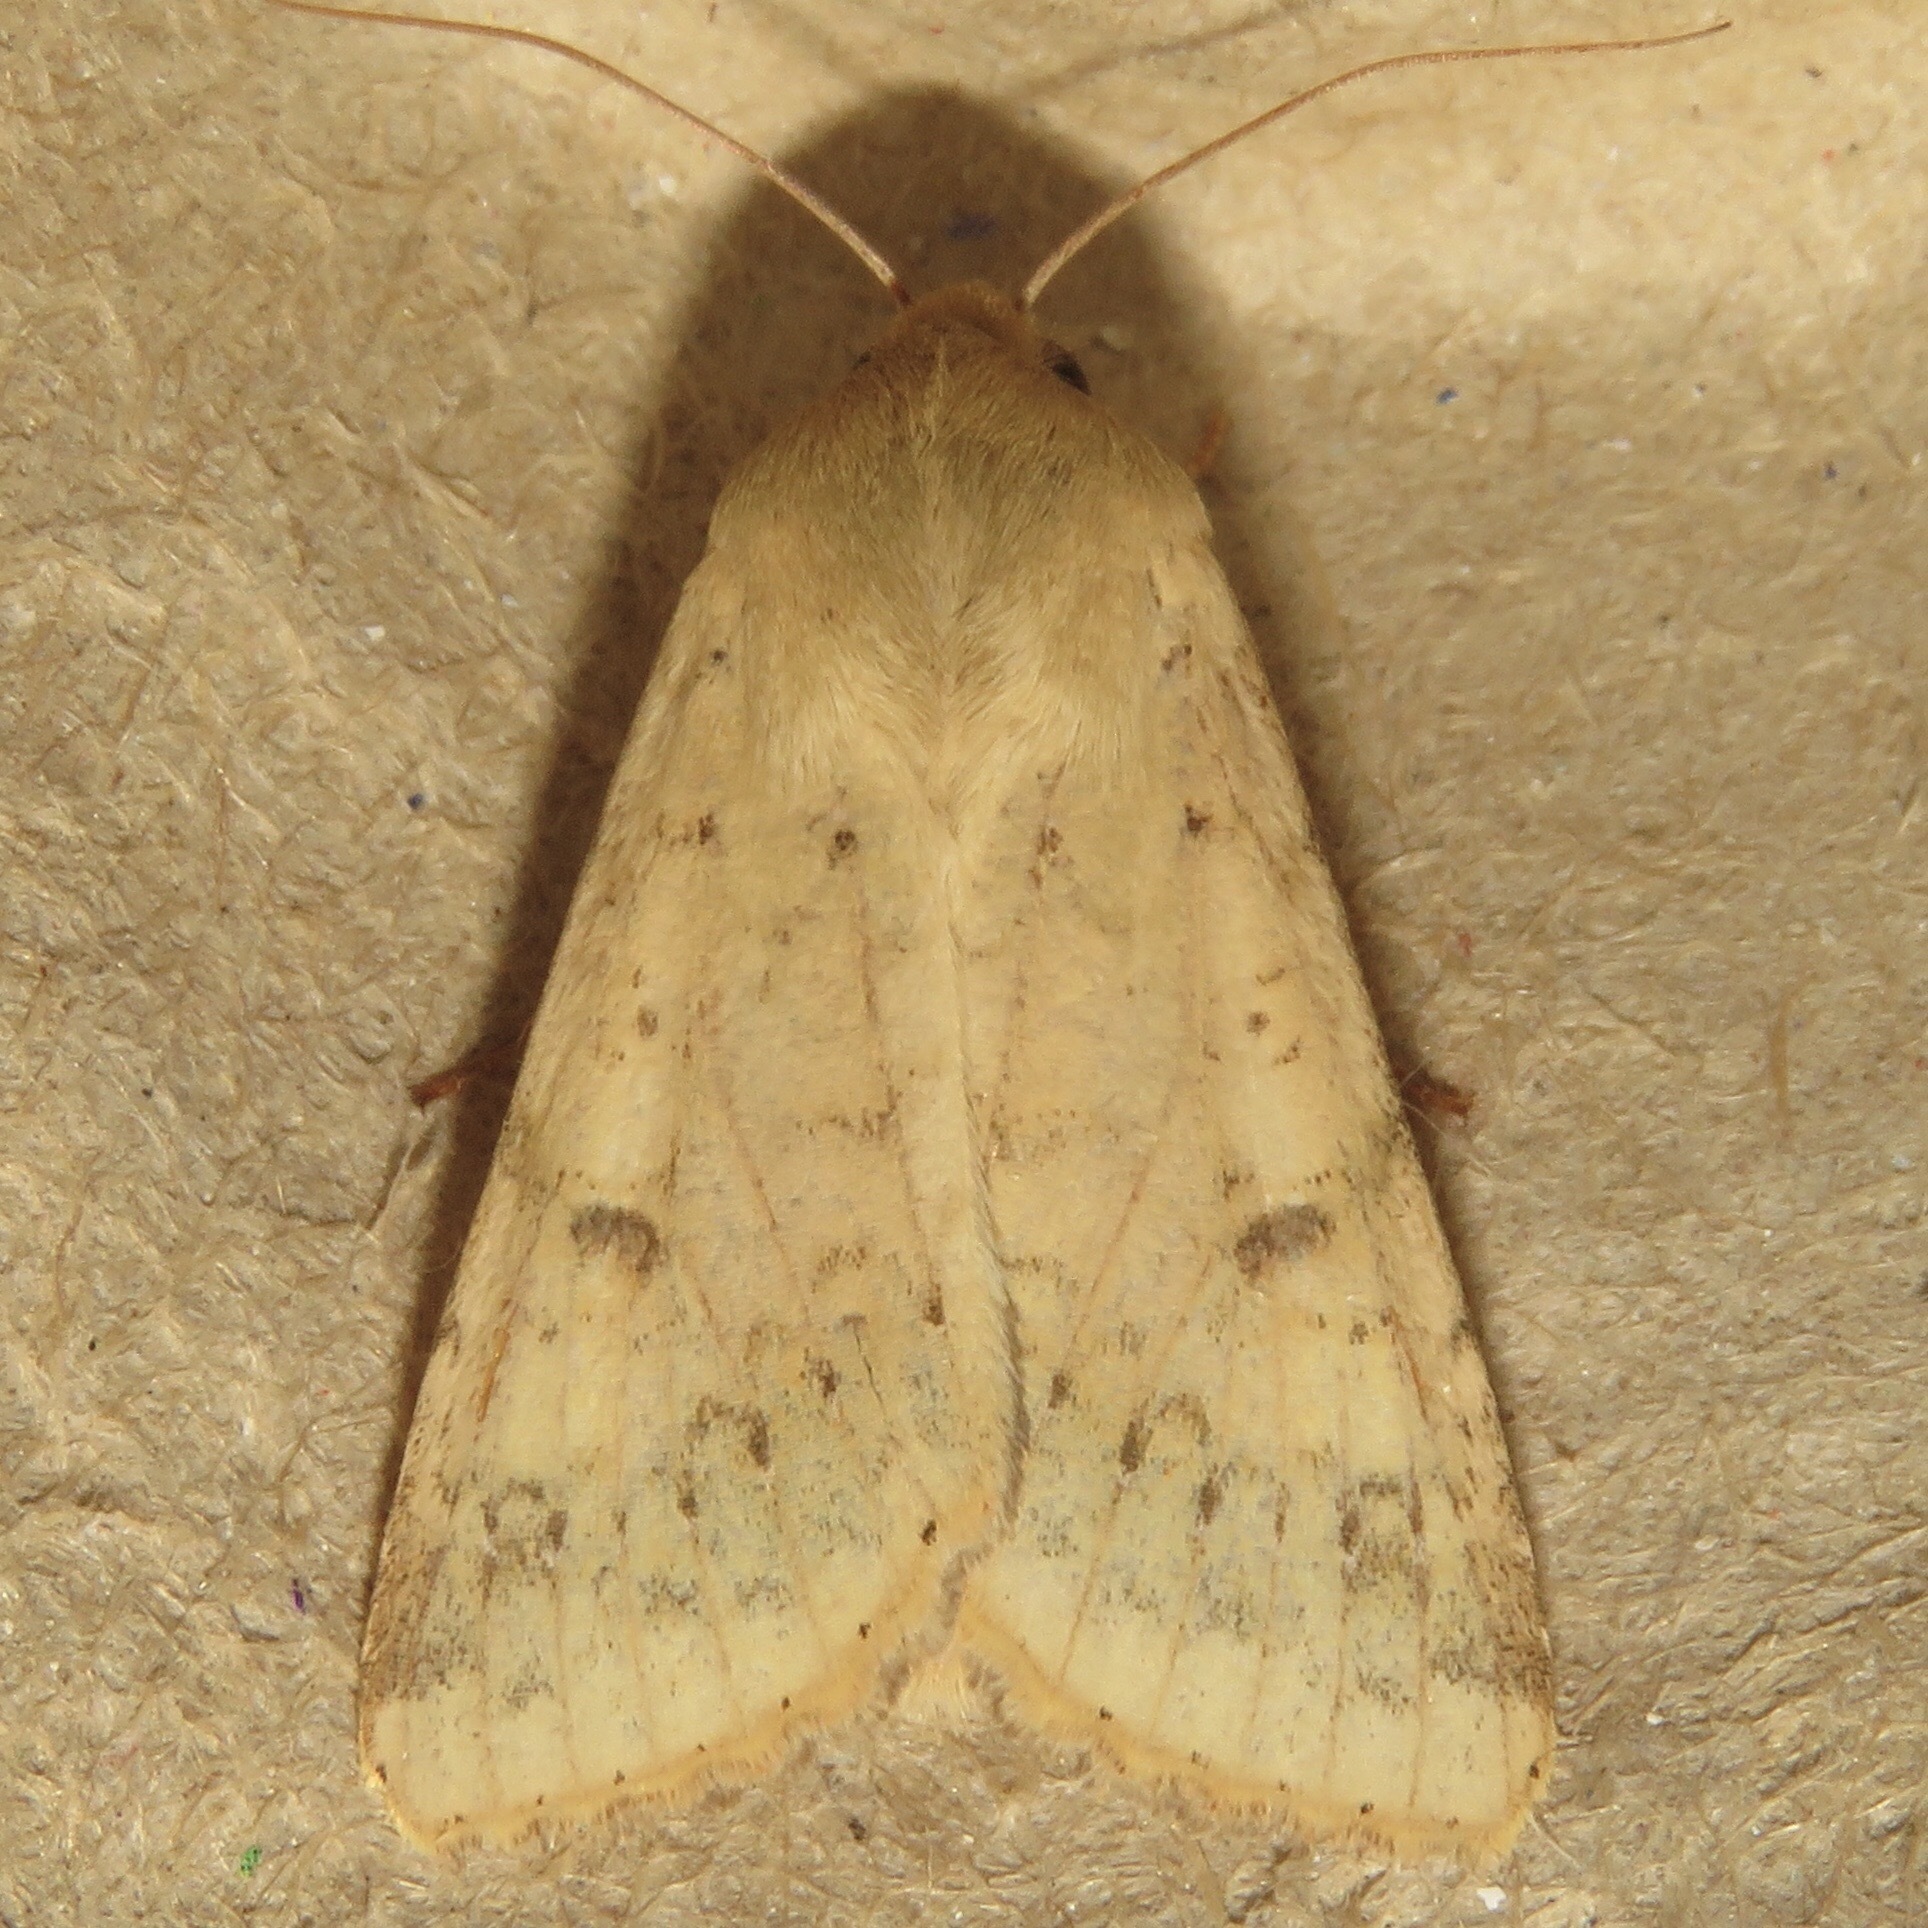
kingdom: Animalia
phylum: Arthropoda
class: Insecta
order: Lepidoptera
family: Noctuidae
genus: Helicoverpa
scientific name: Helicoverpa zea
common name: Bollworm
